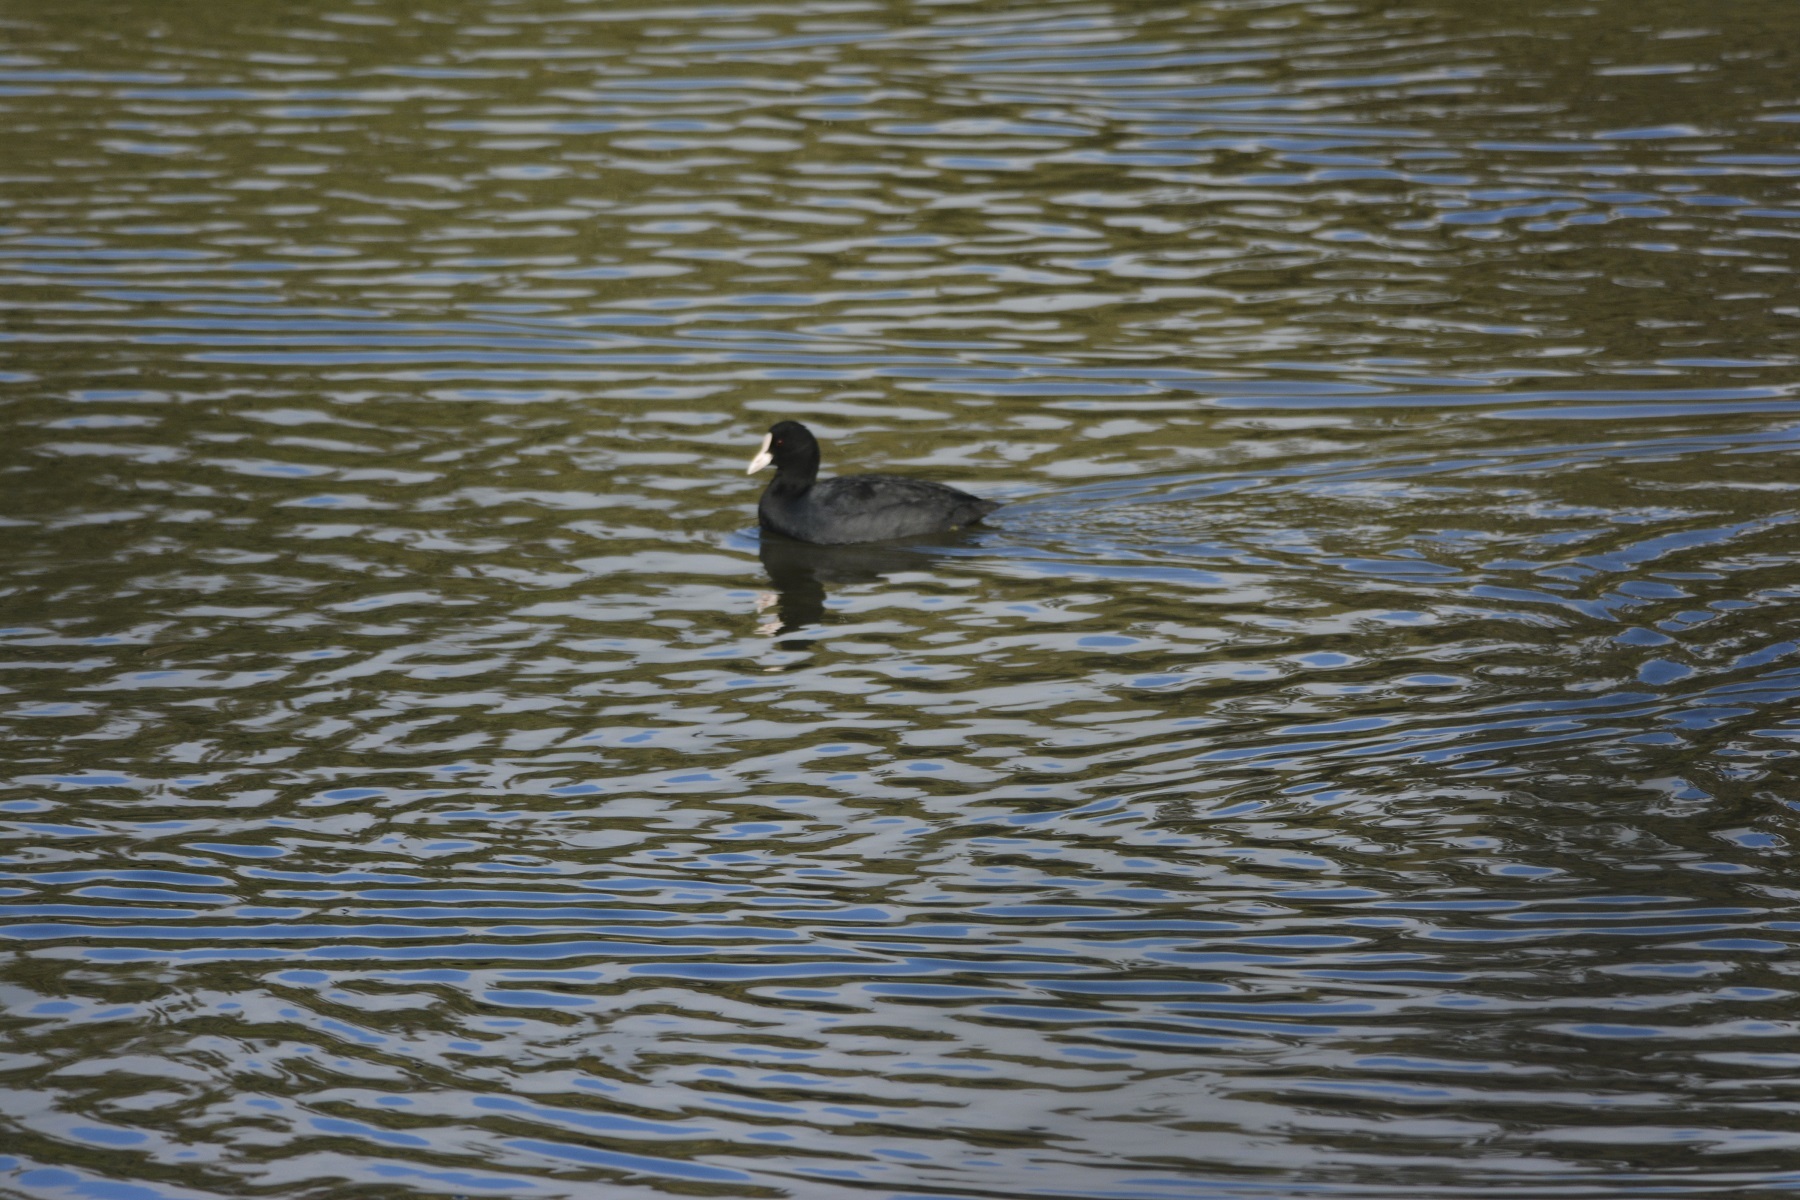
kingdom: Animalia
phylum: Chordata
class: Aves
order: Gruiformes
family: Rallidae
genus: Fulica
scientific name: Fulica atra
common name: Eurasian coot
